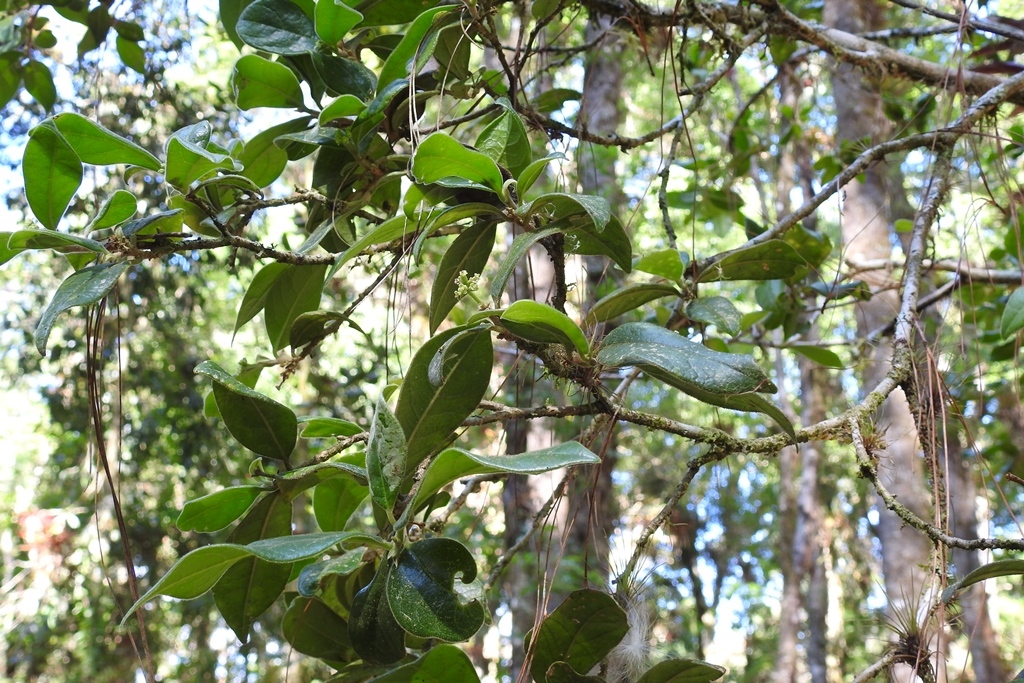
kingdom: Plantae
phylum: Tracheophyta
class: Magnoliopsida
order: Malvales
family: Thymelaeaceae
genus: Daphnopsis
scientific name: Daphnopsis selerorum
